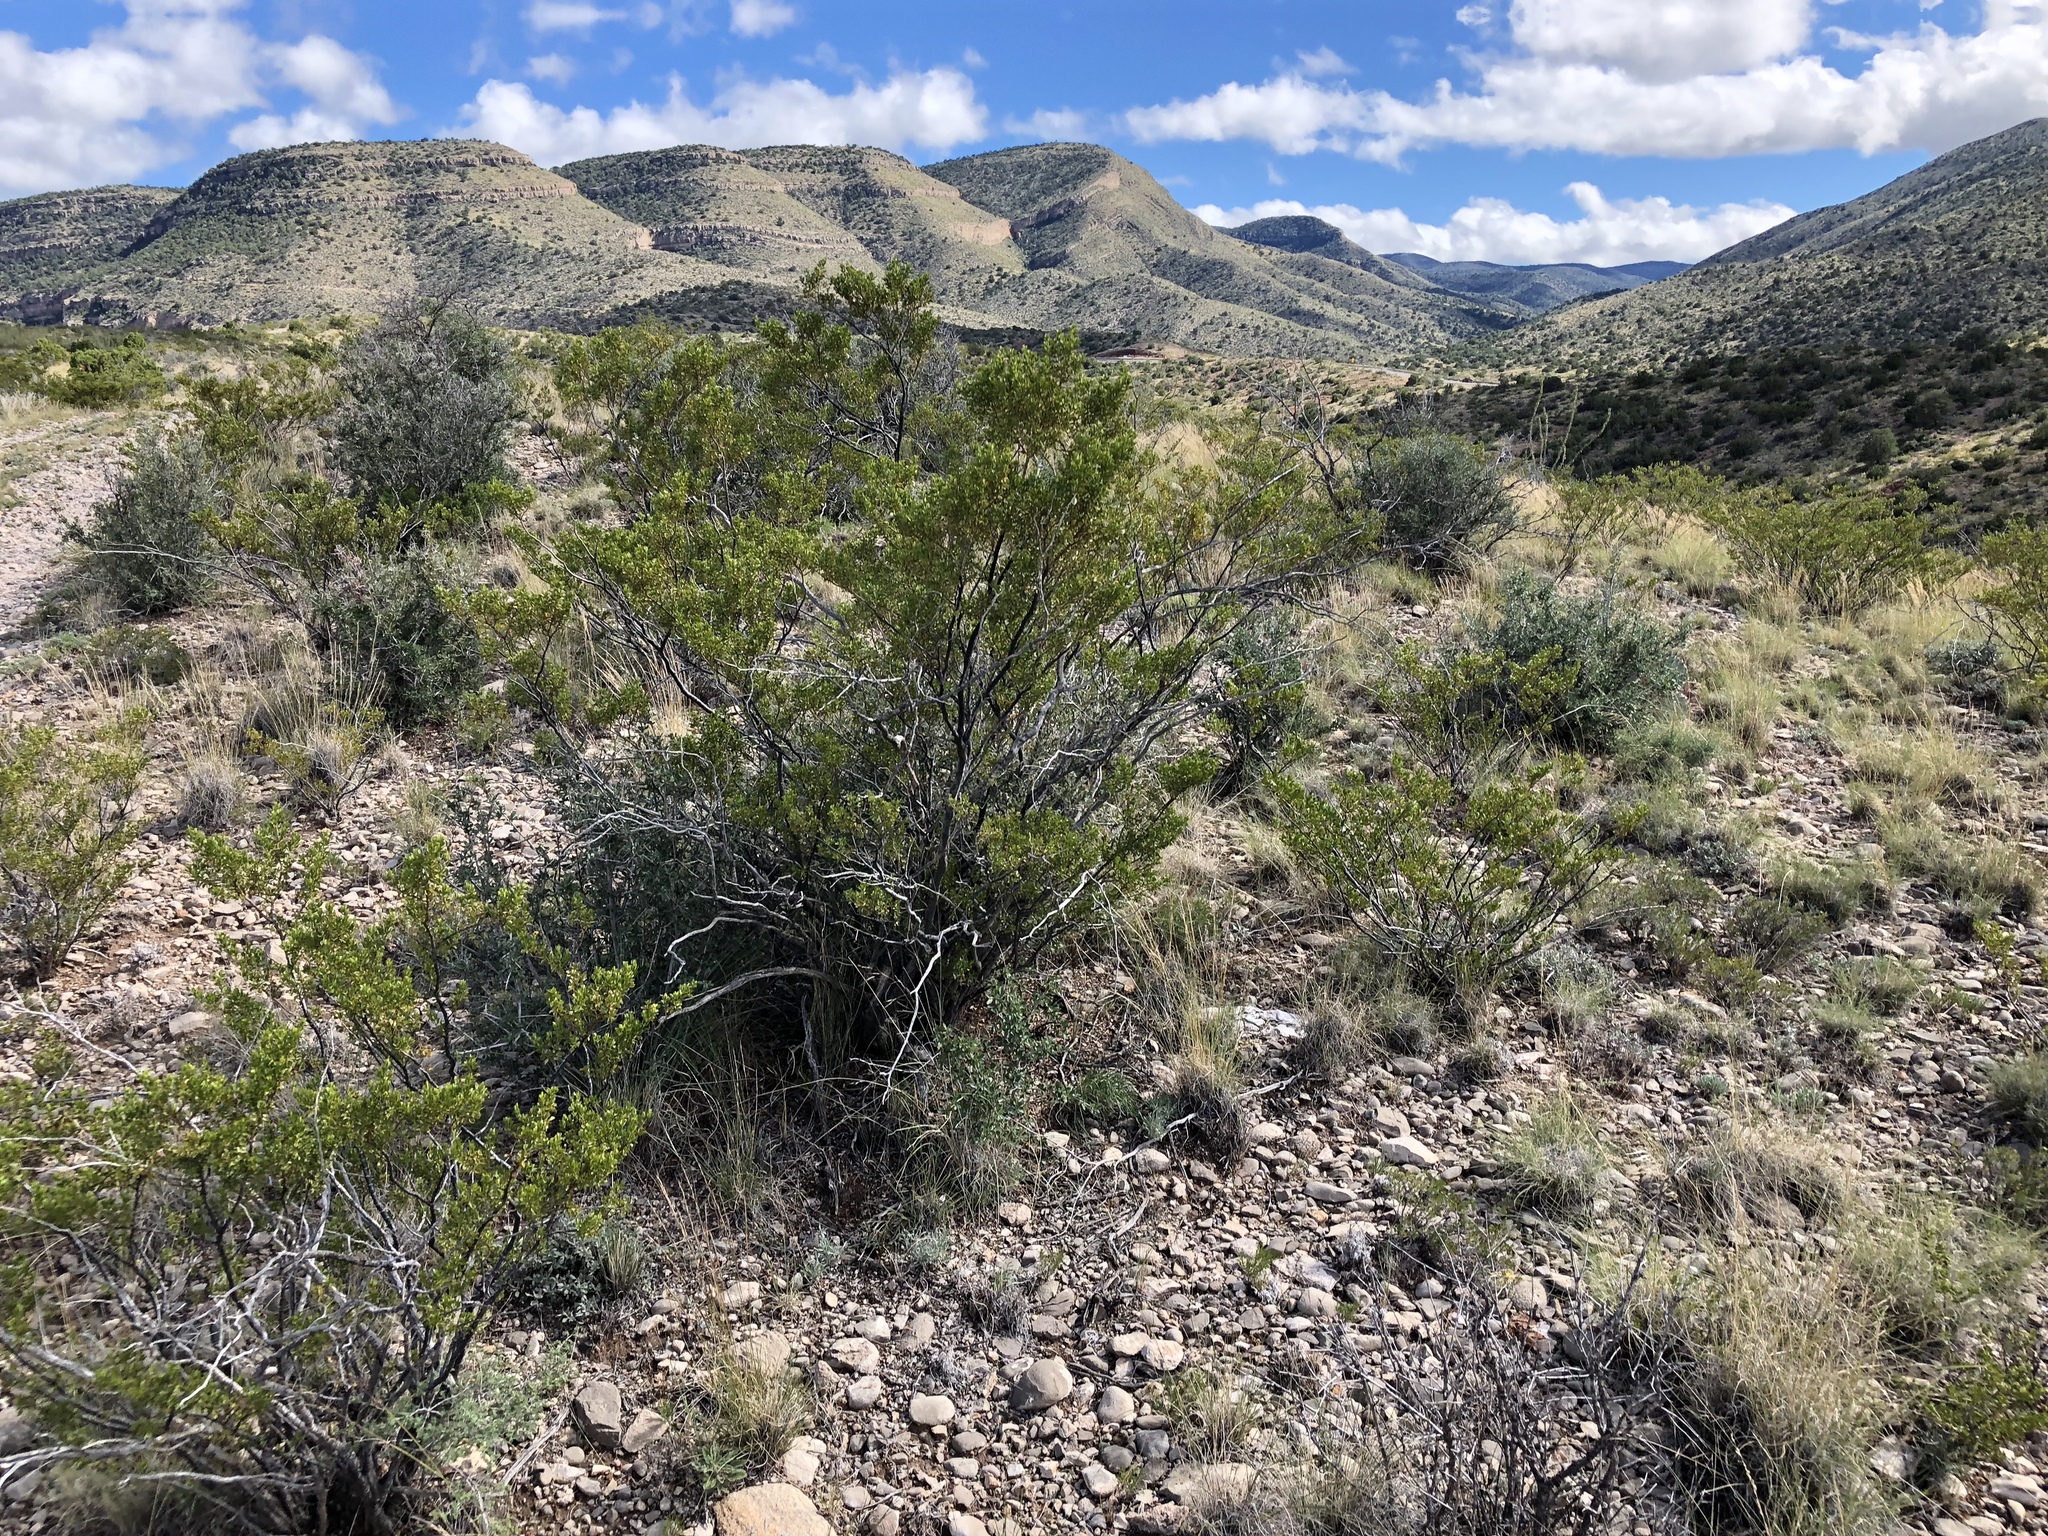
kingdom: Plantae
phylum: Tracheophyta
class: Magnoliopsida
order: Zygophyllales
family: Zygophyllaceae
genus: Larrea
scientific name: Larrea tridentata
